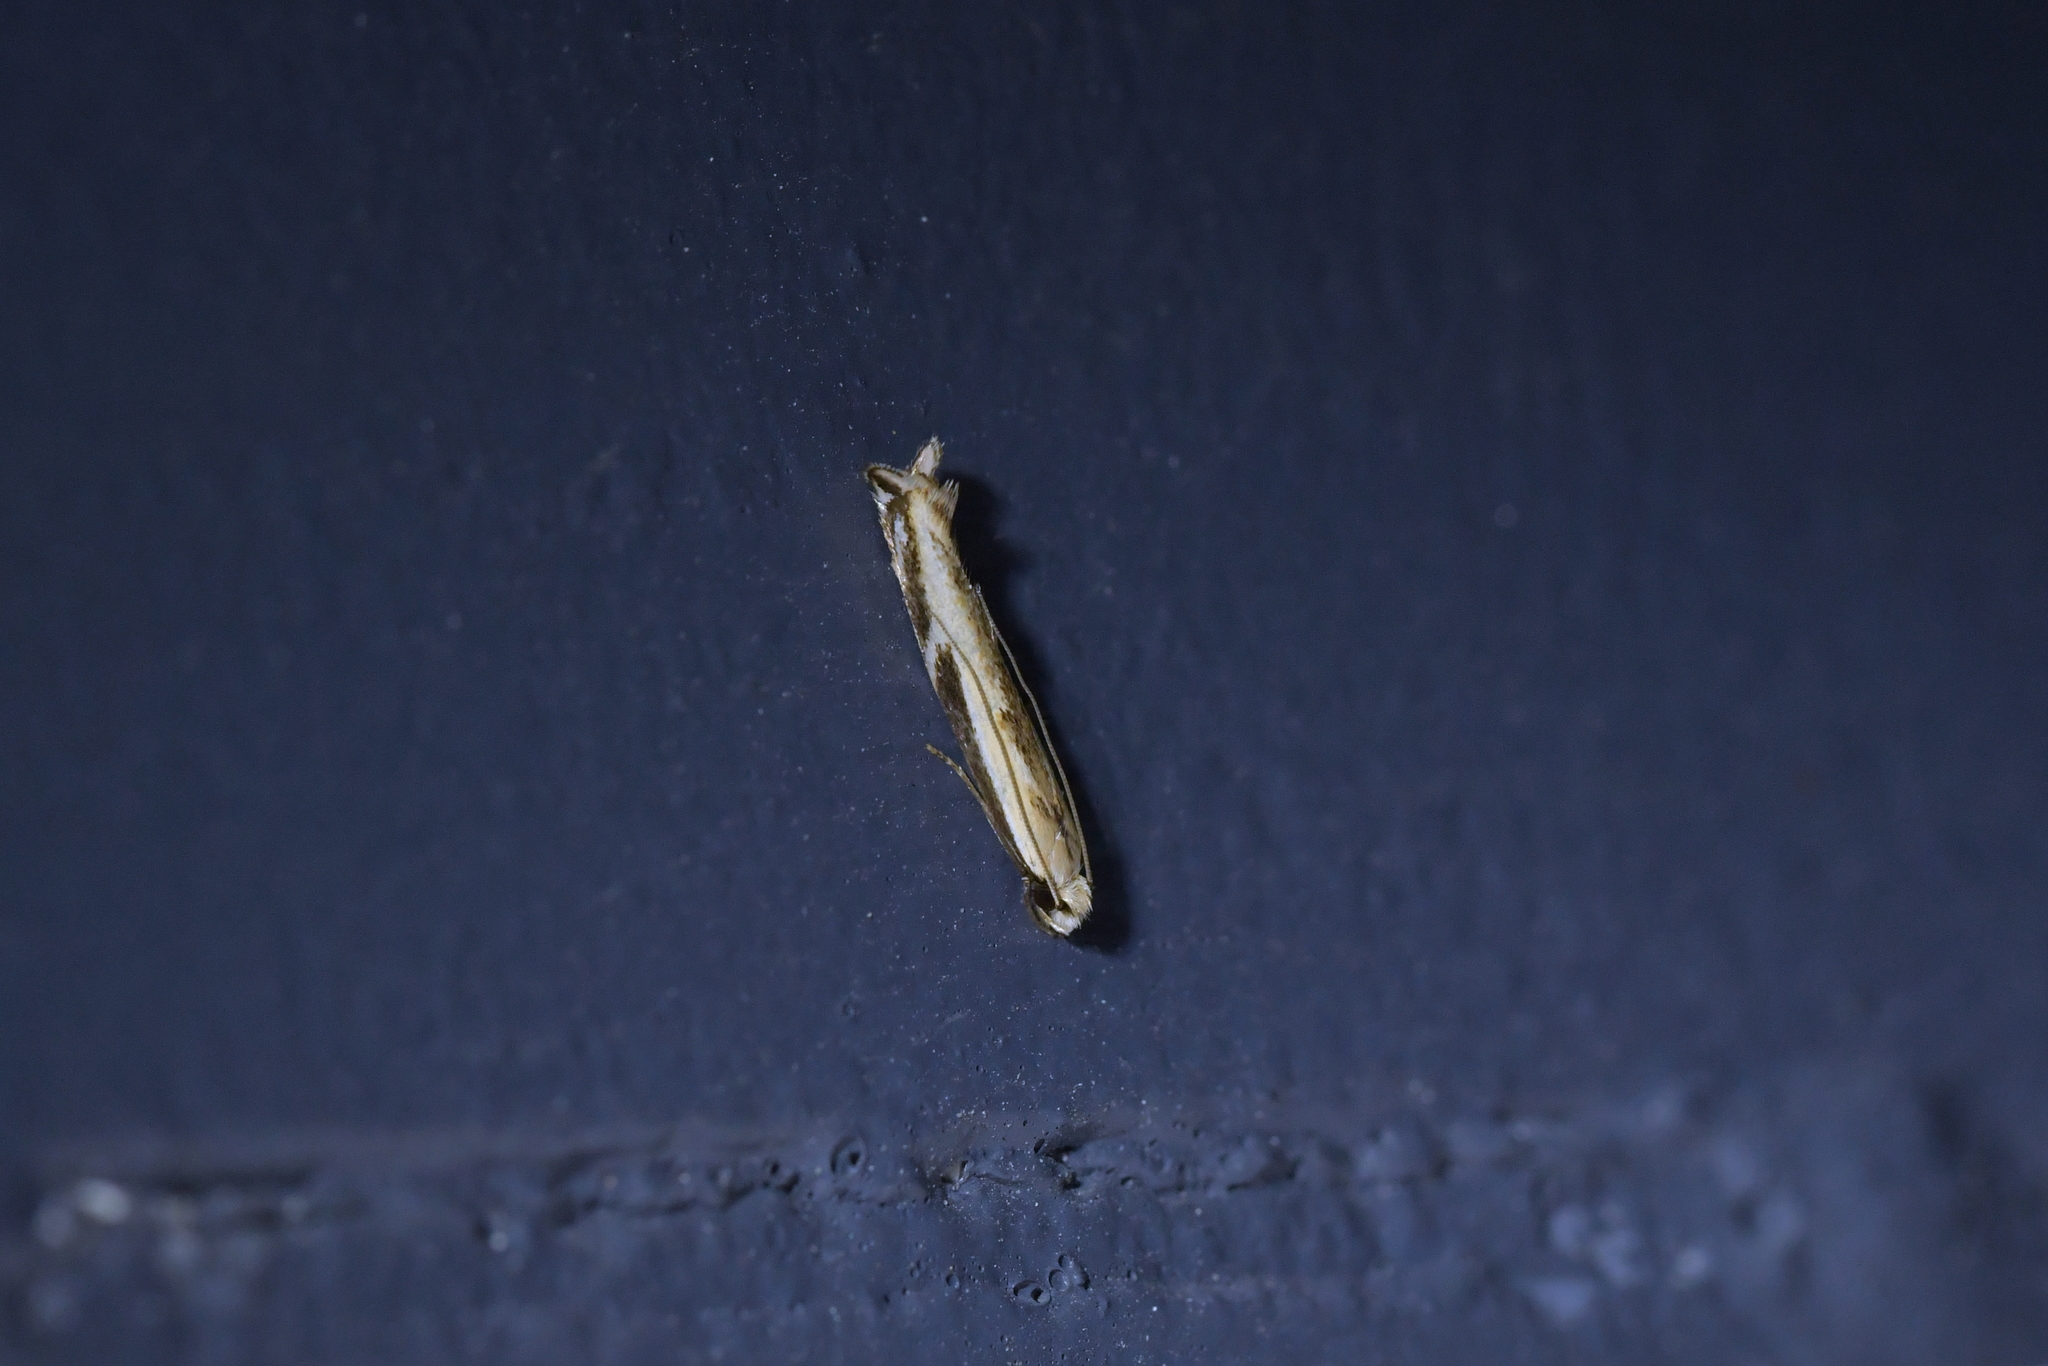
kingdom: Animalia
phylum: Arthropoda
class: Insecta
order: Lepidoptera
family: Tineidae
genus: Erechthias
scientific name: Erechthias terminella
